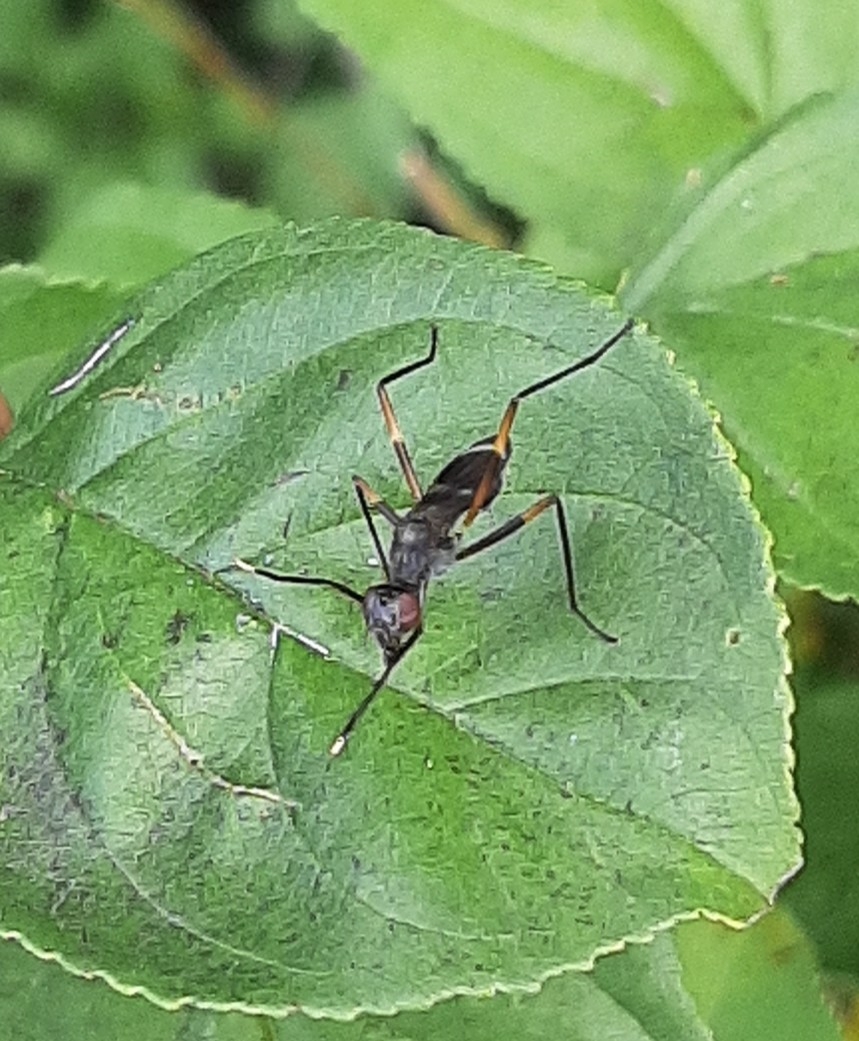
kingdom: Animalia
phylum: Arthropoda
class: Insecta
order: Diptera
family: Micropezidae
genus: Taeniaptera
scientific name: Taeniaptera trivittata
